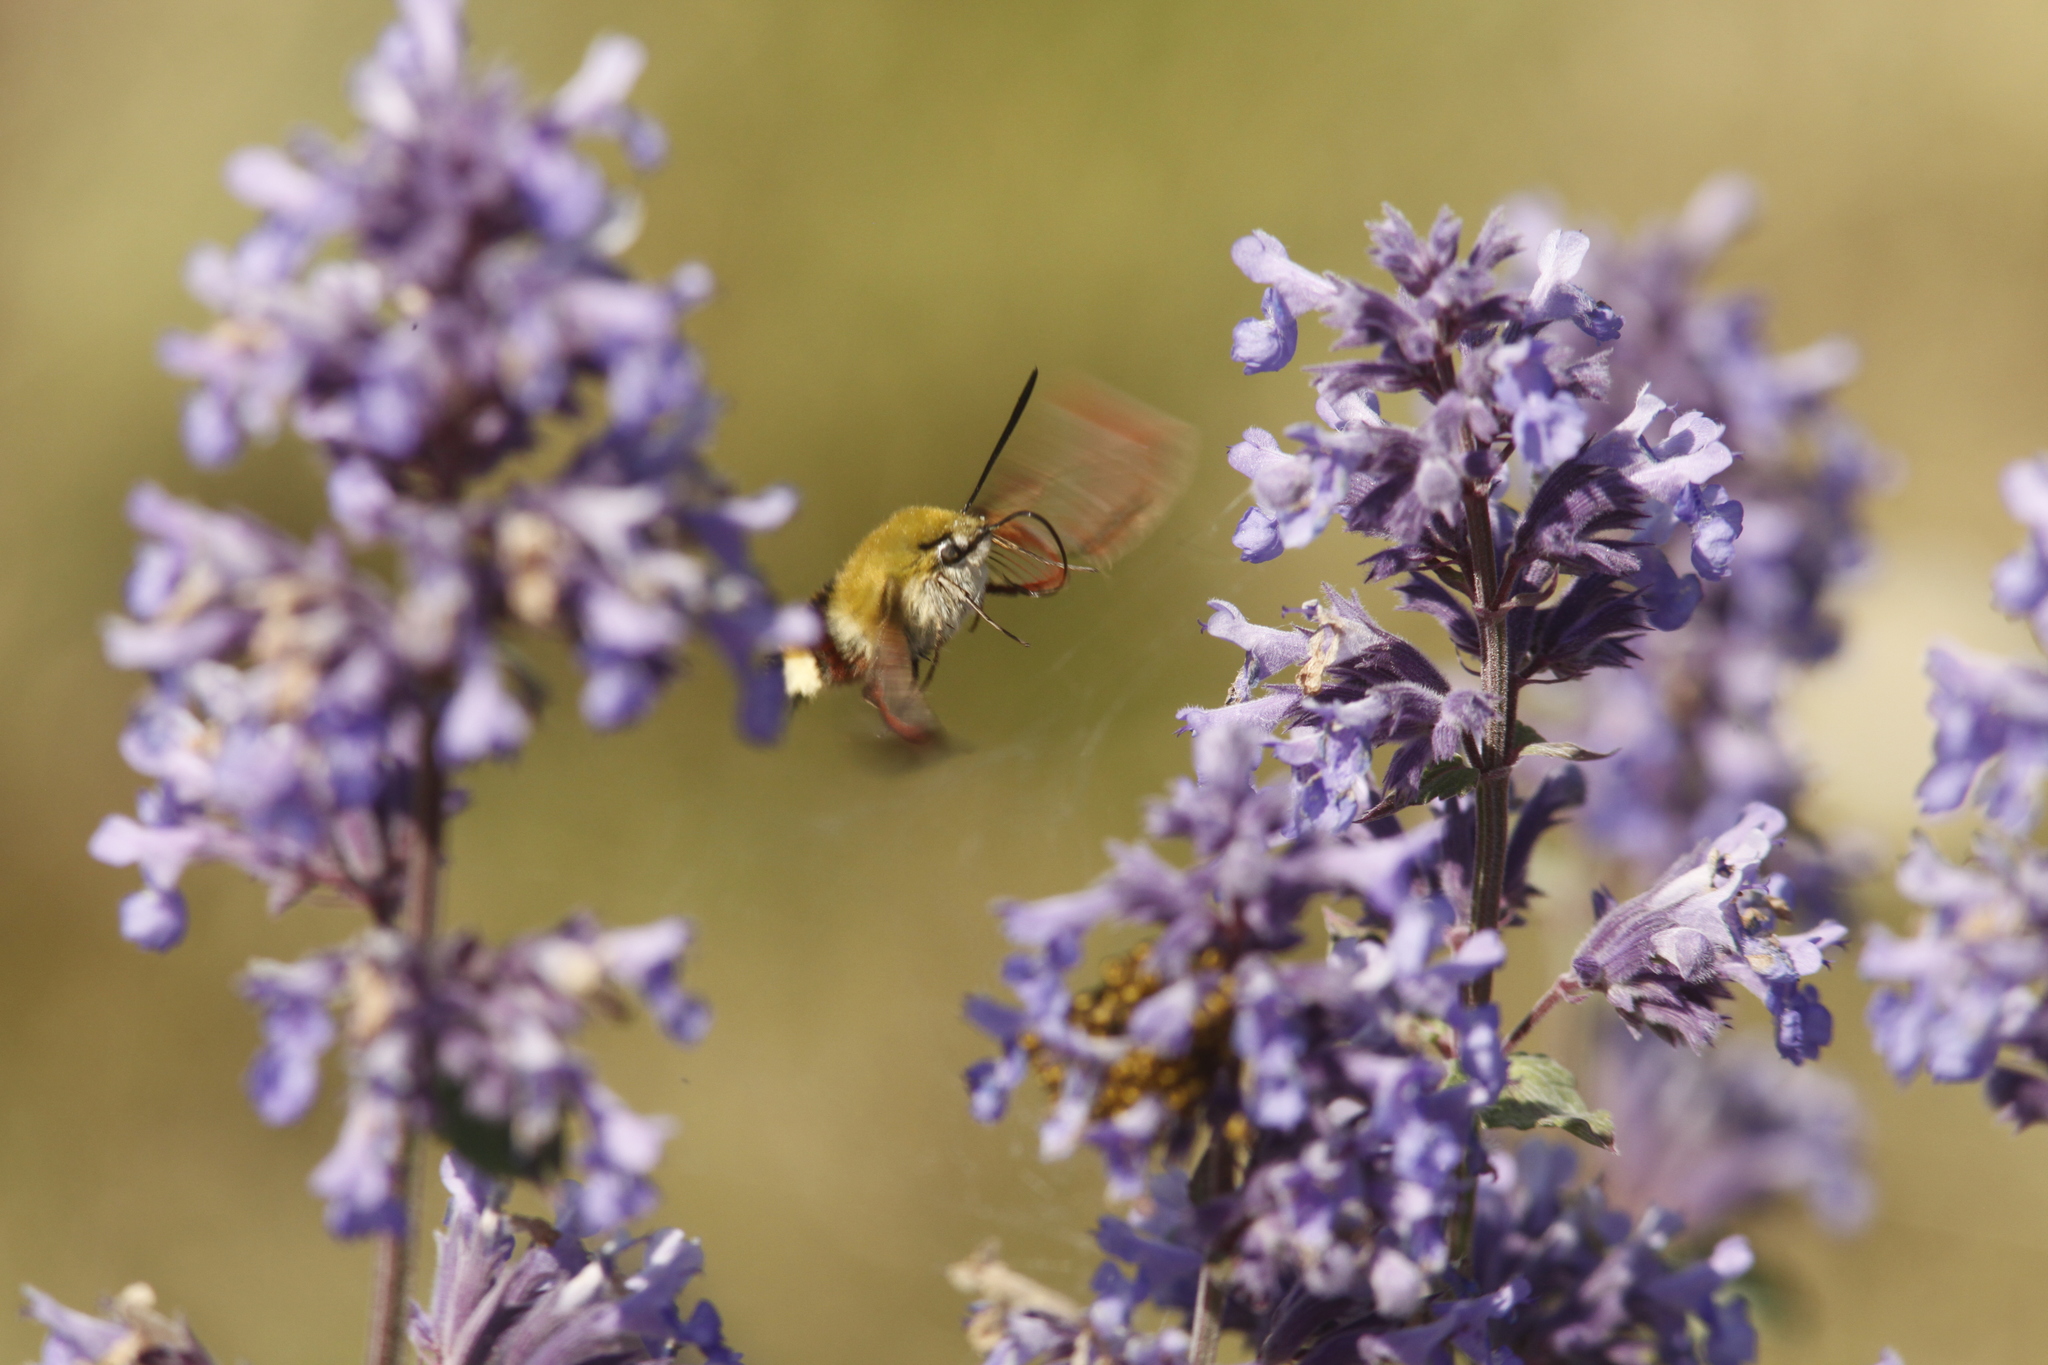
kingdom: Animalia
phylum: Arthropoda
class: Insecta
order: Lepidoptera
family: Sphingidae
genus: Hemaris
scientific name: Hemaris fuciformis
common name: Broad-bordered bee hawk-moth
